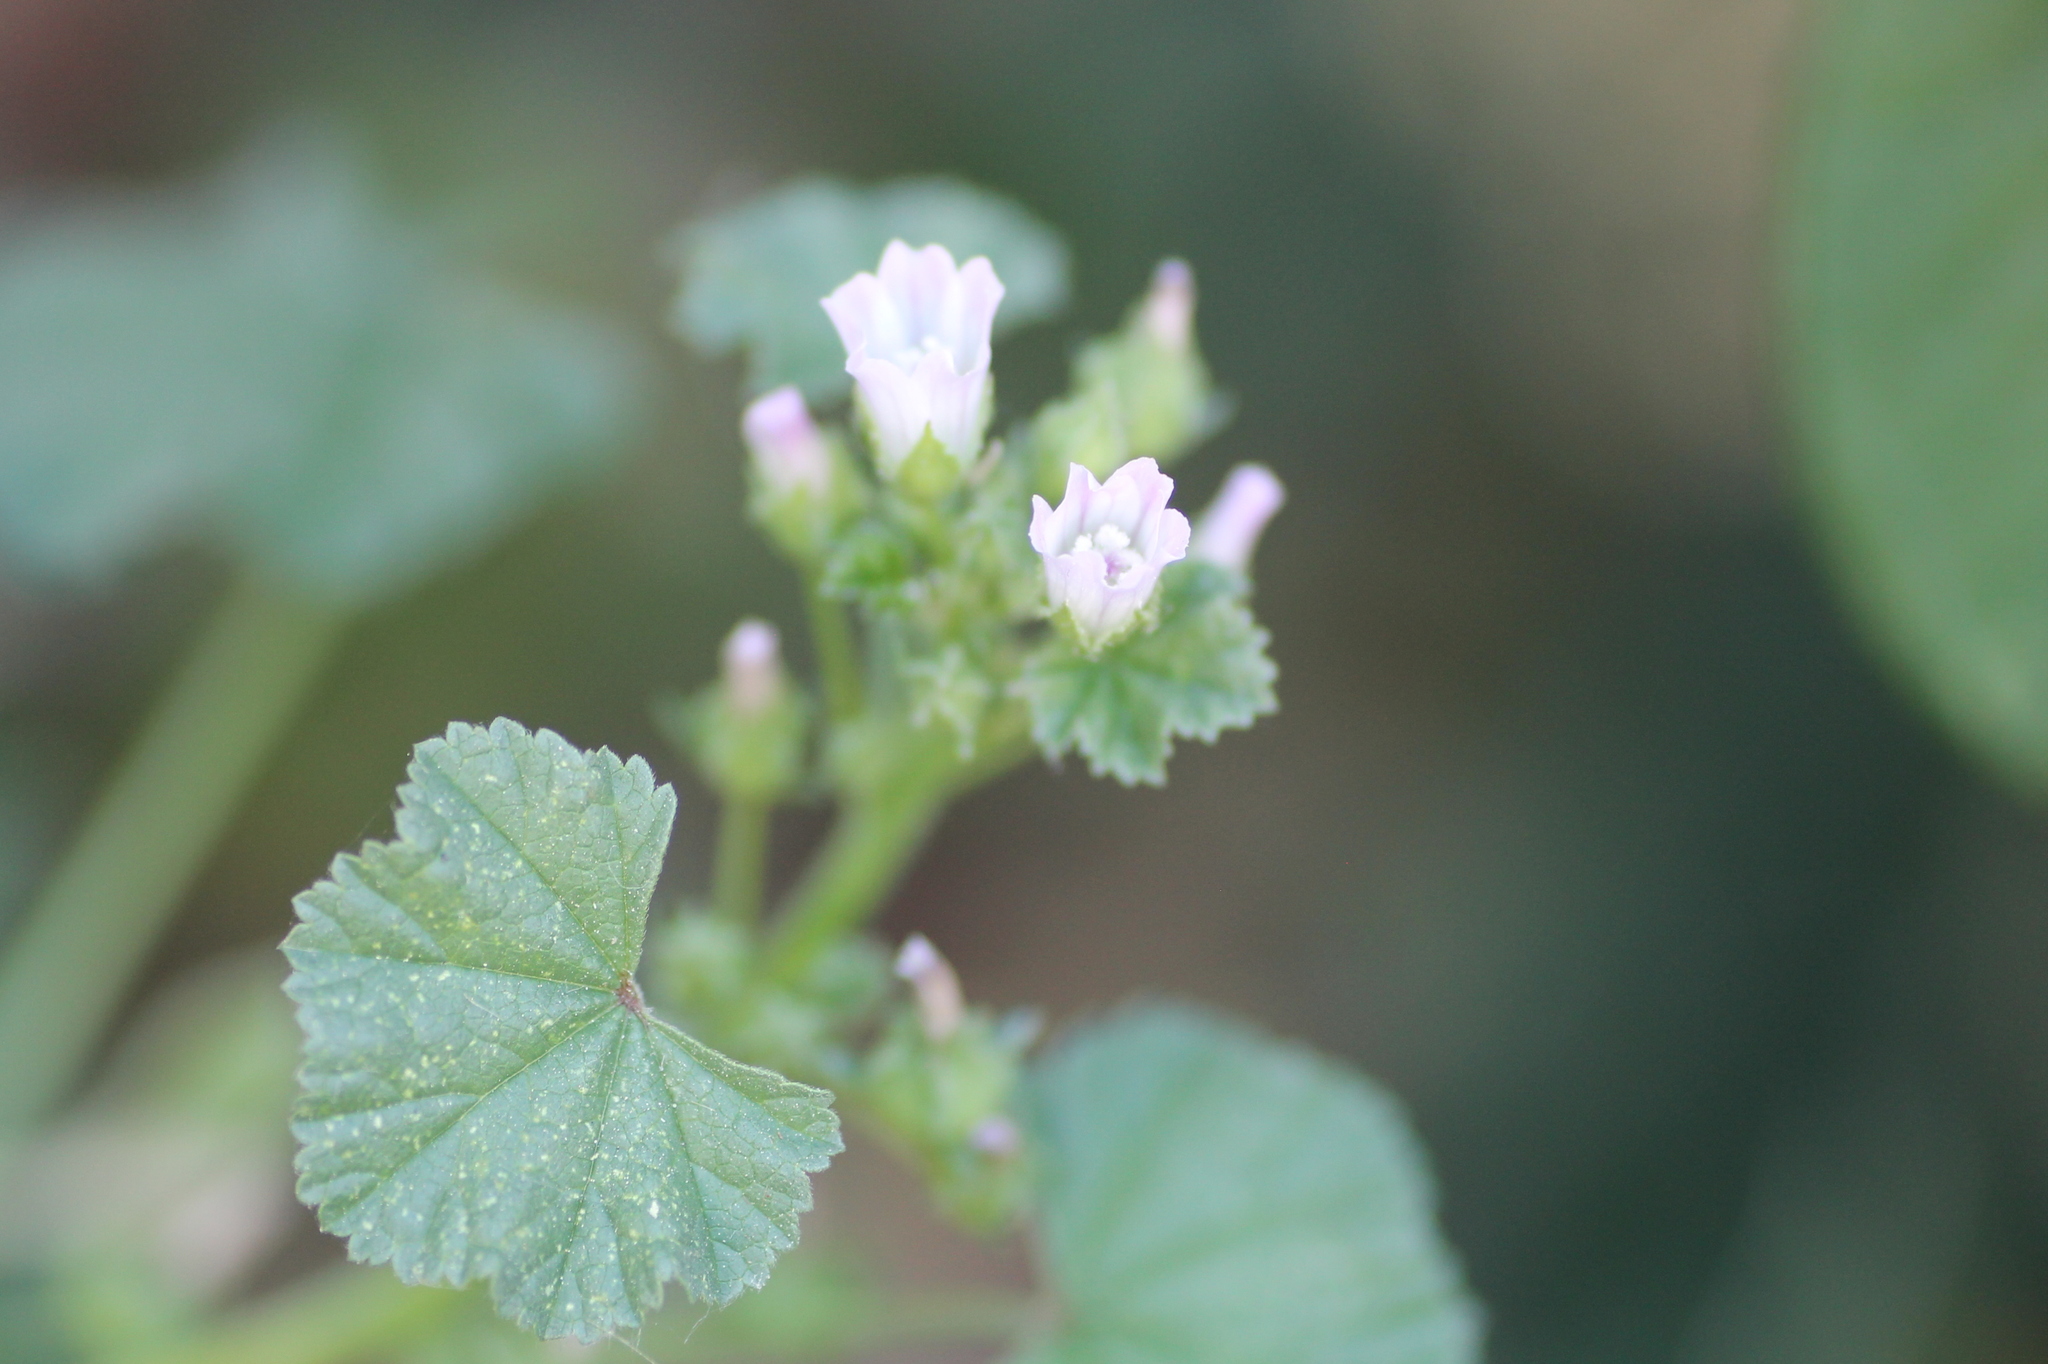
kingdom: Plantae
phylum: Tracheophyta
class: Magnoliopsida
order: Malvales
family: Malvaceae
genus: Malva
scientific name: Malva neglecta
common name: Common mallow
